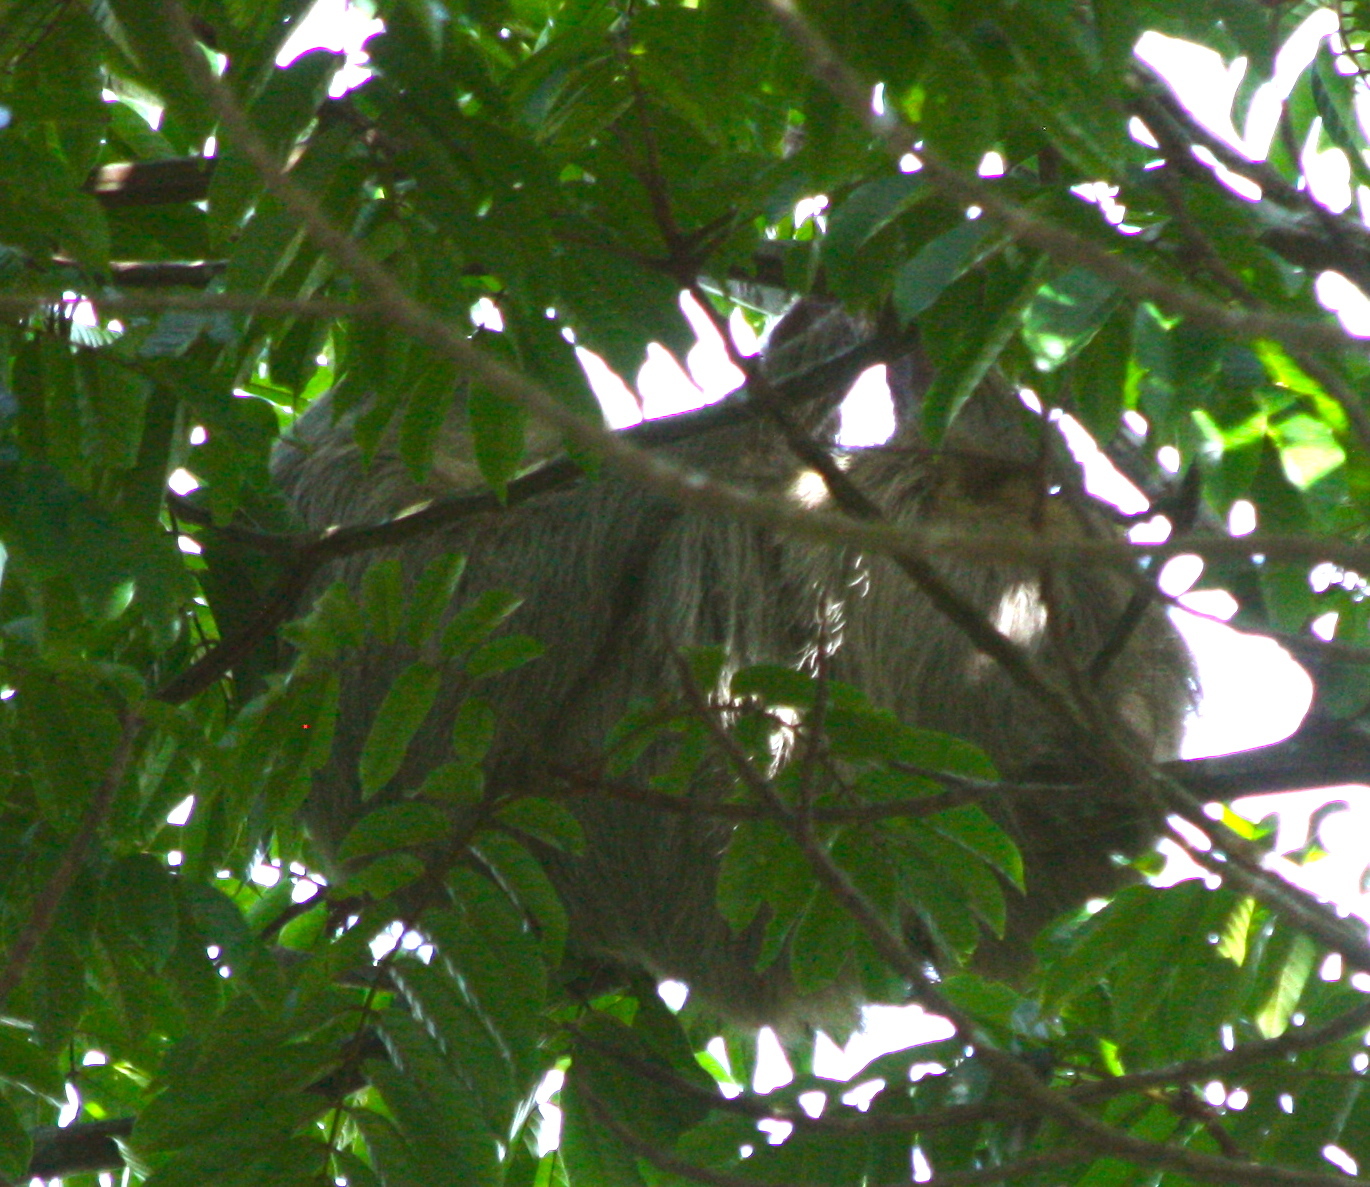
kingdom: Animalia
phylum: Chordata
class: Mammalia
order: Pilosa
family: Megalonychidae
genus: Choloepus
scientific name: Choloepus hoffmanni
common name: Hoffmann's two-toed sloth
